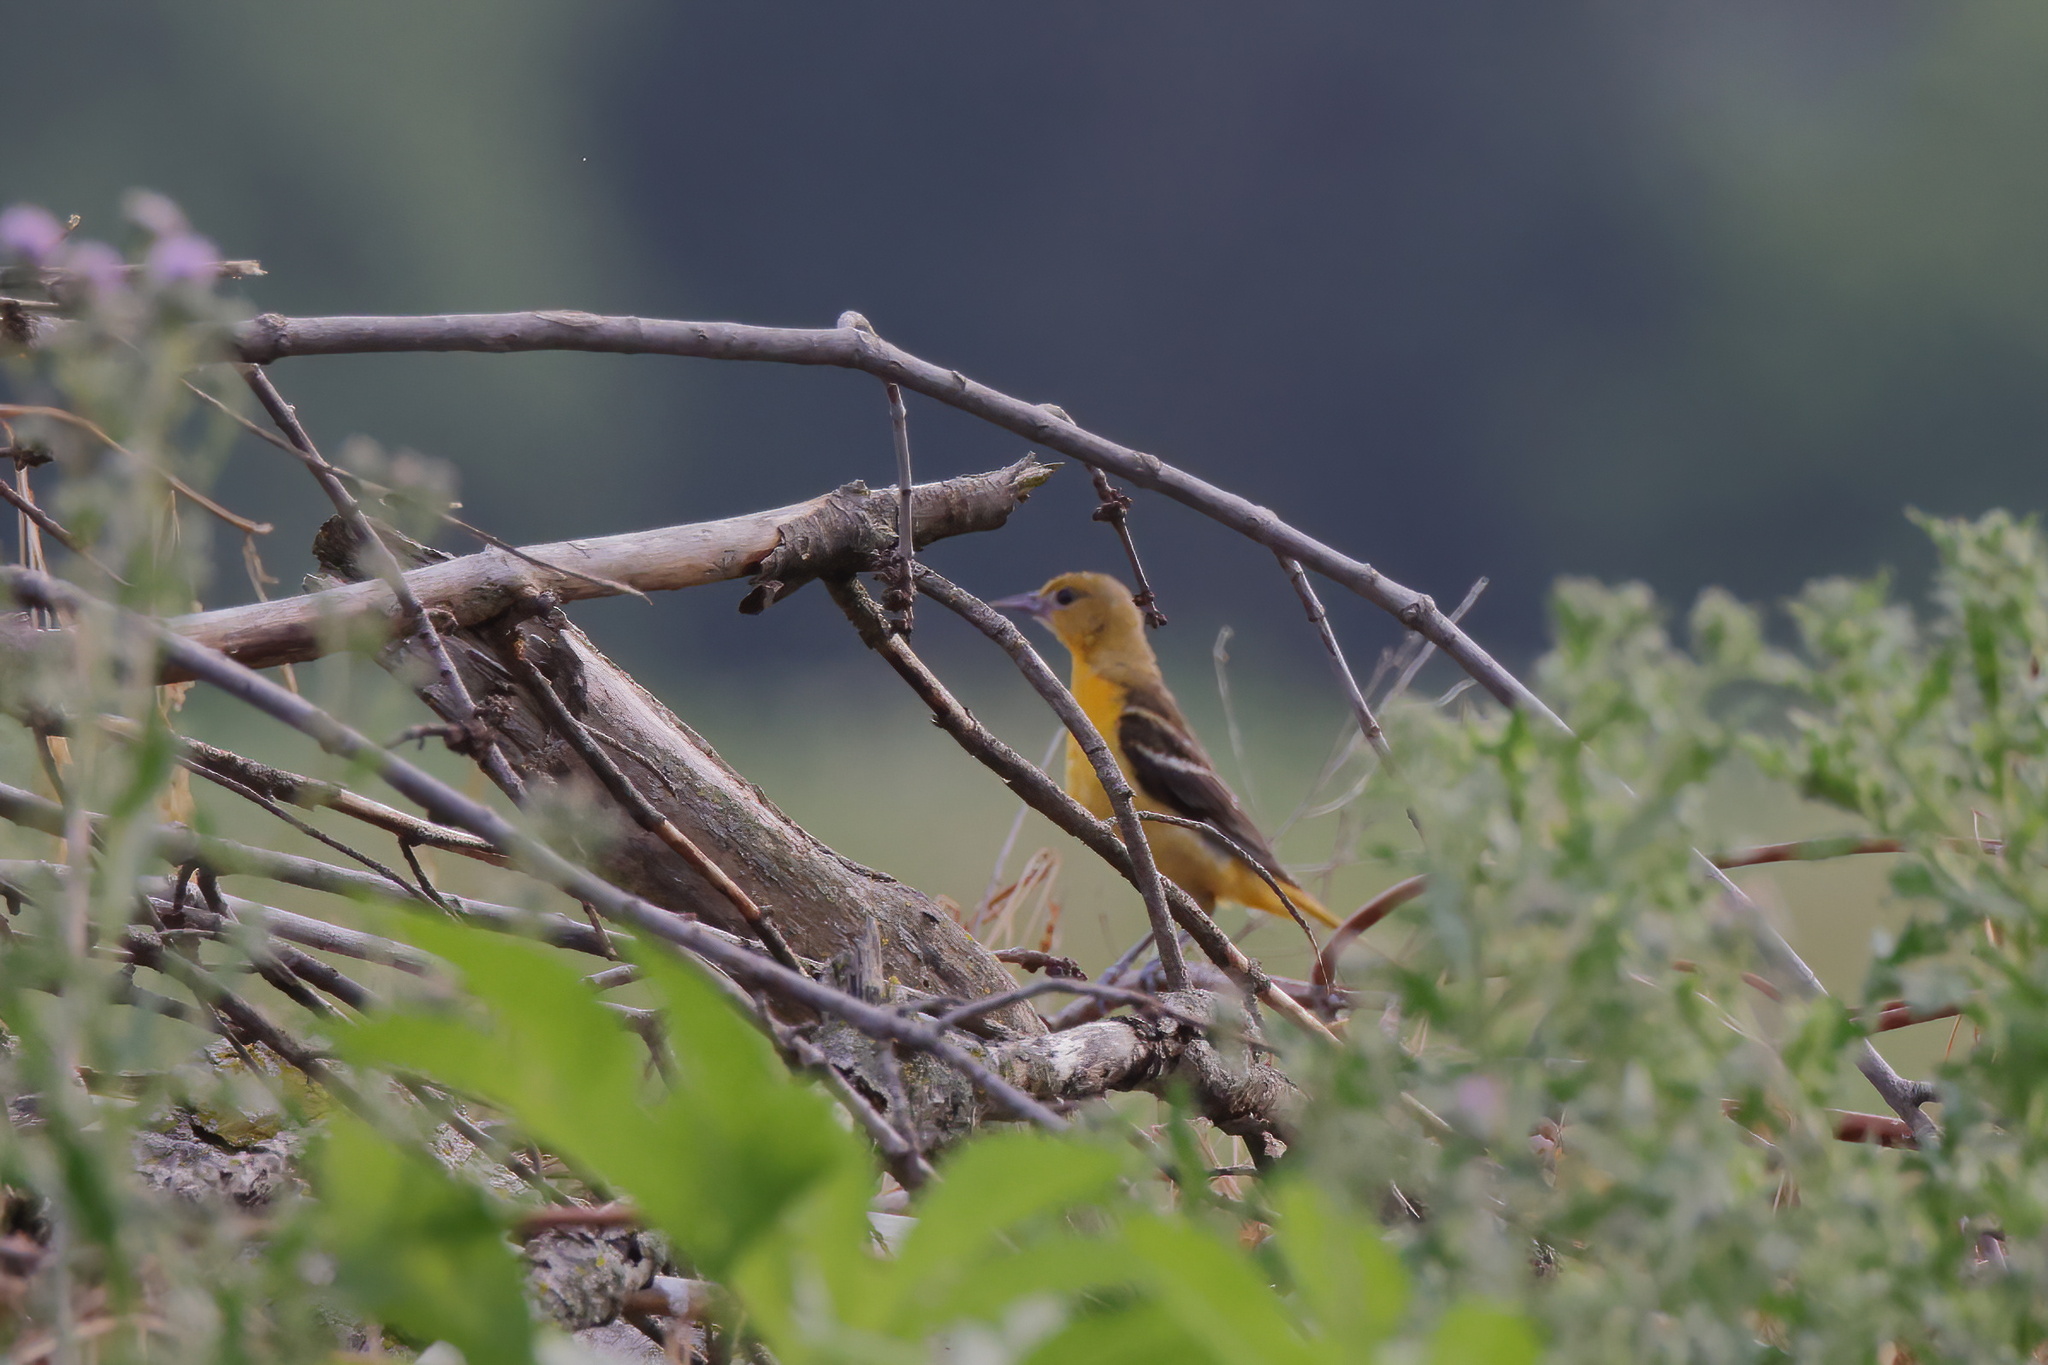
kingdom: Animalia
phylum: Chordata
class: Aves
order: Passeriformes
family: Icteridae
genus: Icterus
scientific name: Icterus galbula
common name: Baltimore oriole
